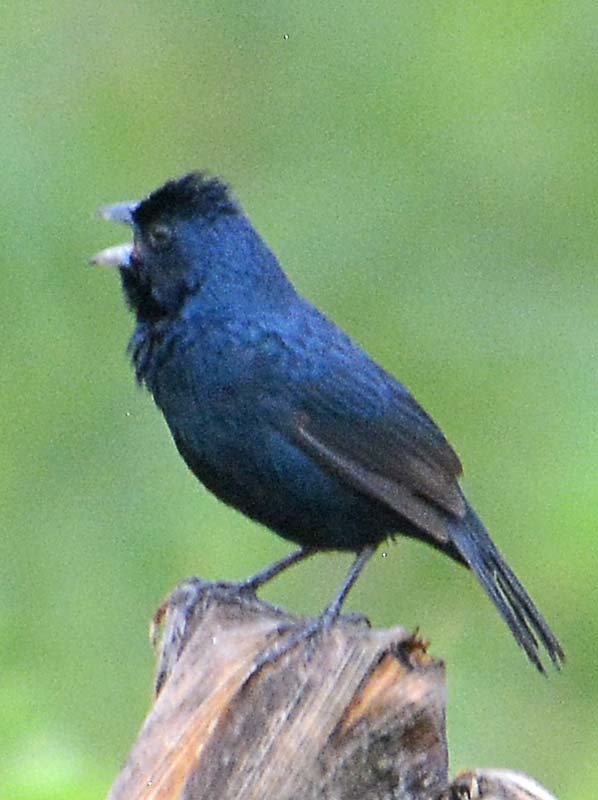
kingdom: Animalia
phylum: Chordata
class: Aves
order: Passeriformes
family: Thraupidae
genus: Volatinia
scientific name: Volatinia jacarina
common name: Blue-black grassquit
